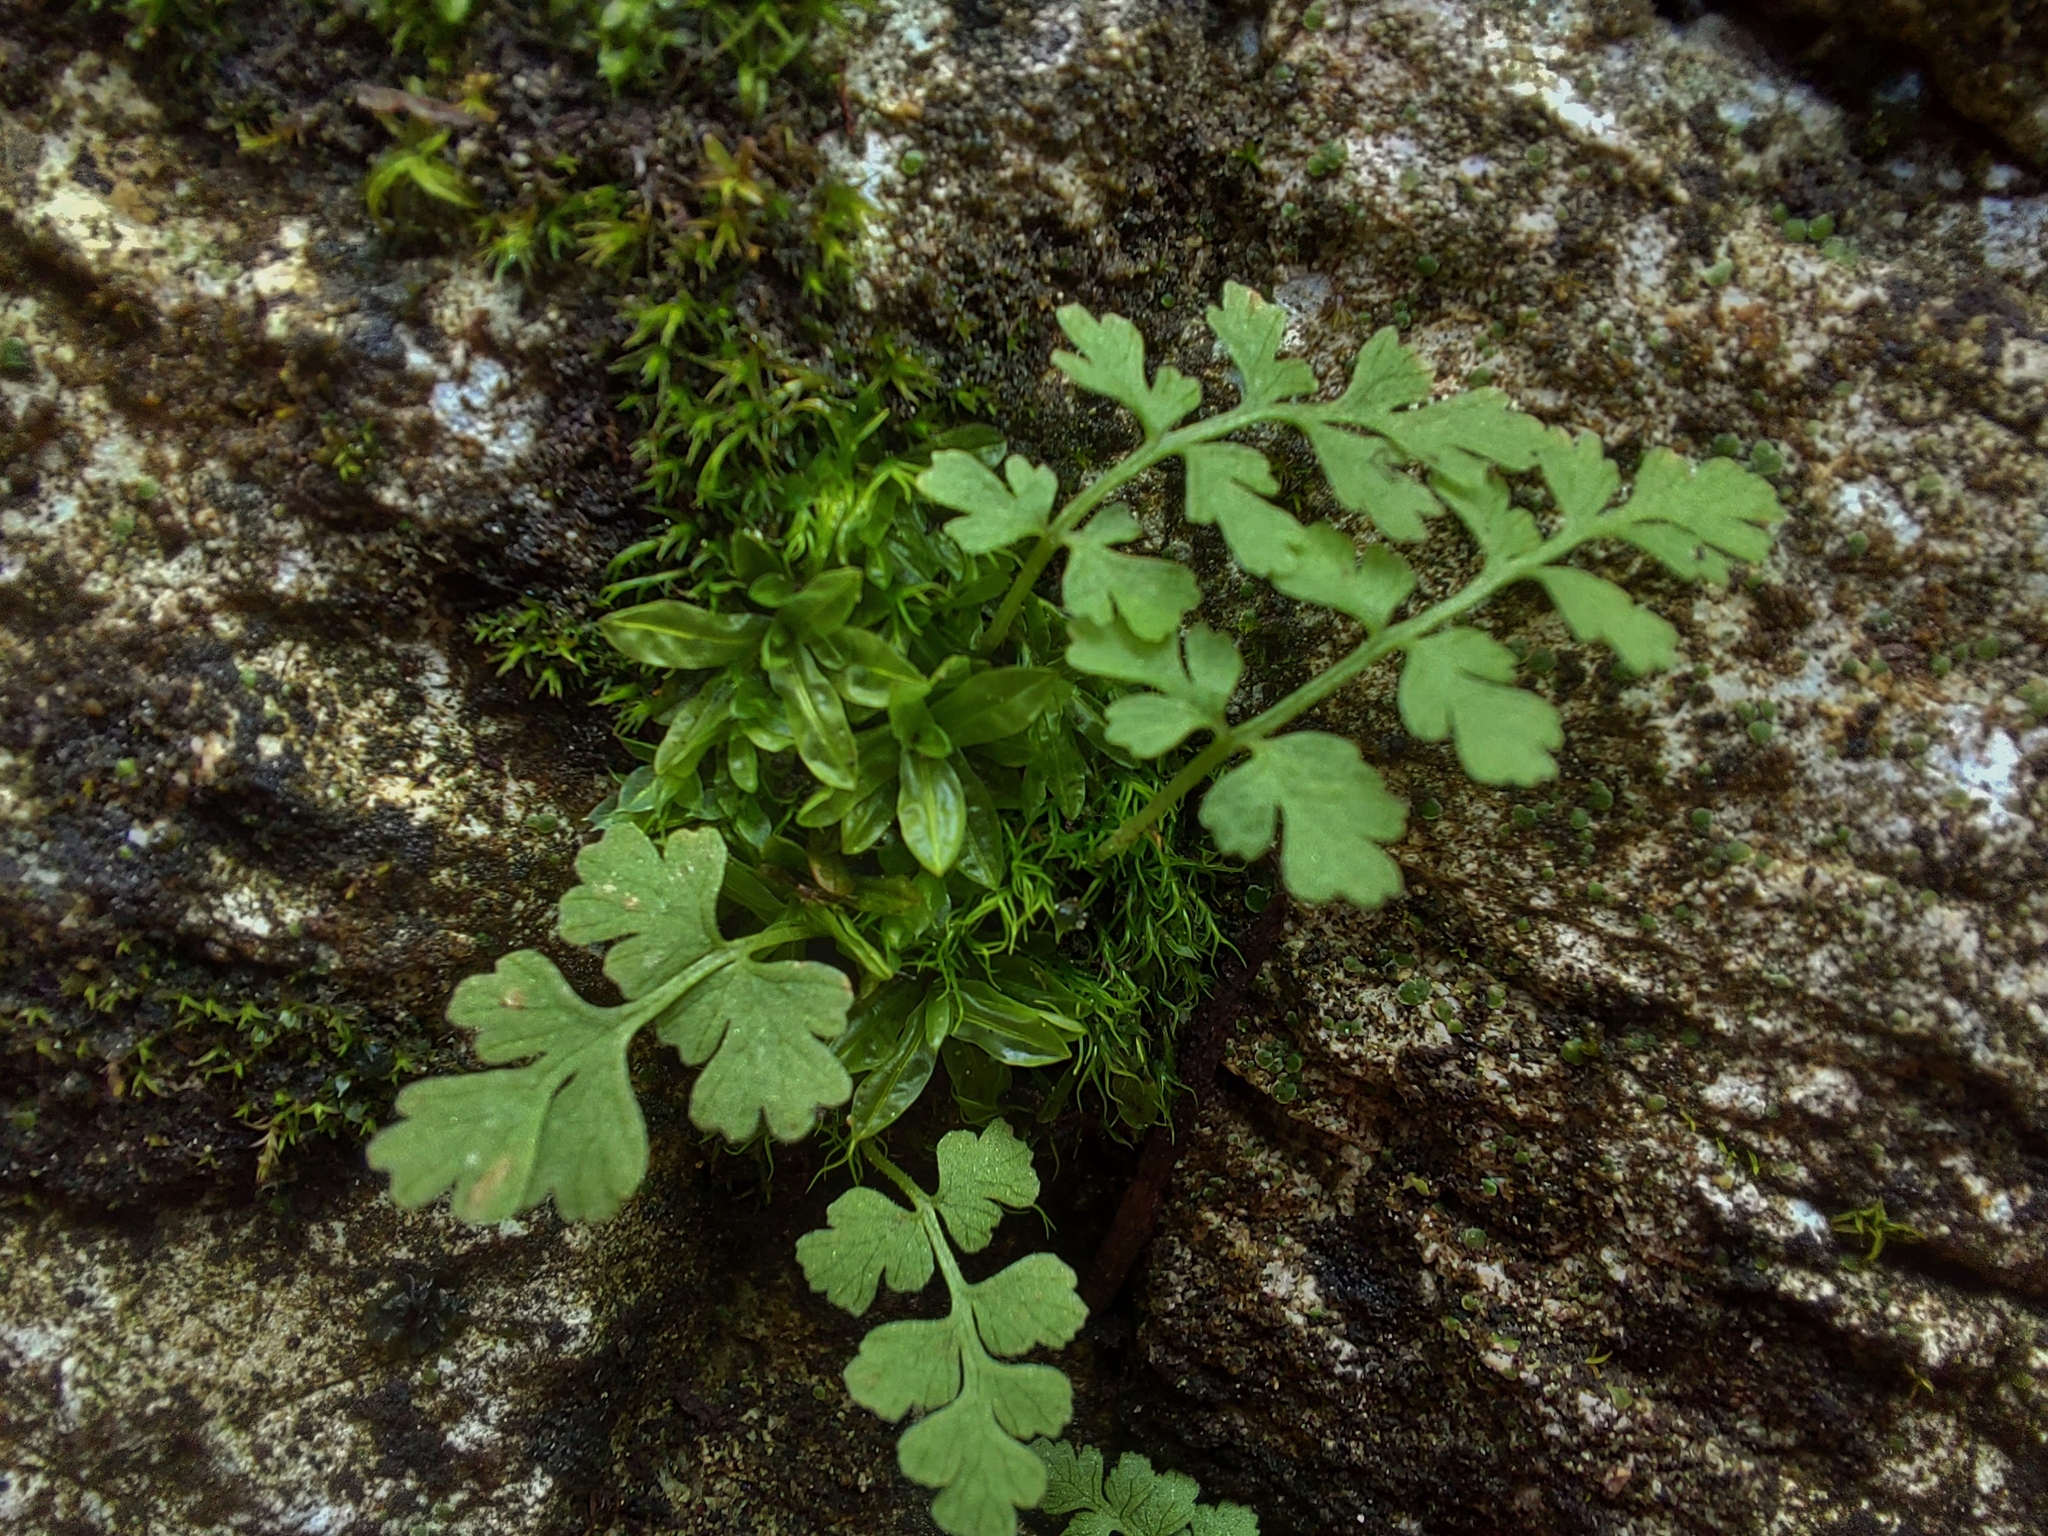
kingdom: Plantae
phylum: Tracheophyta
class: Polypodiopsida
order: Polypodiales
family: Cystopteridaceae
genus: Cystopteris
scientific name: Cystopteris fragilis
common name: Brittle bladder fern
